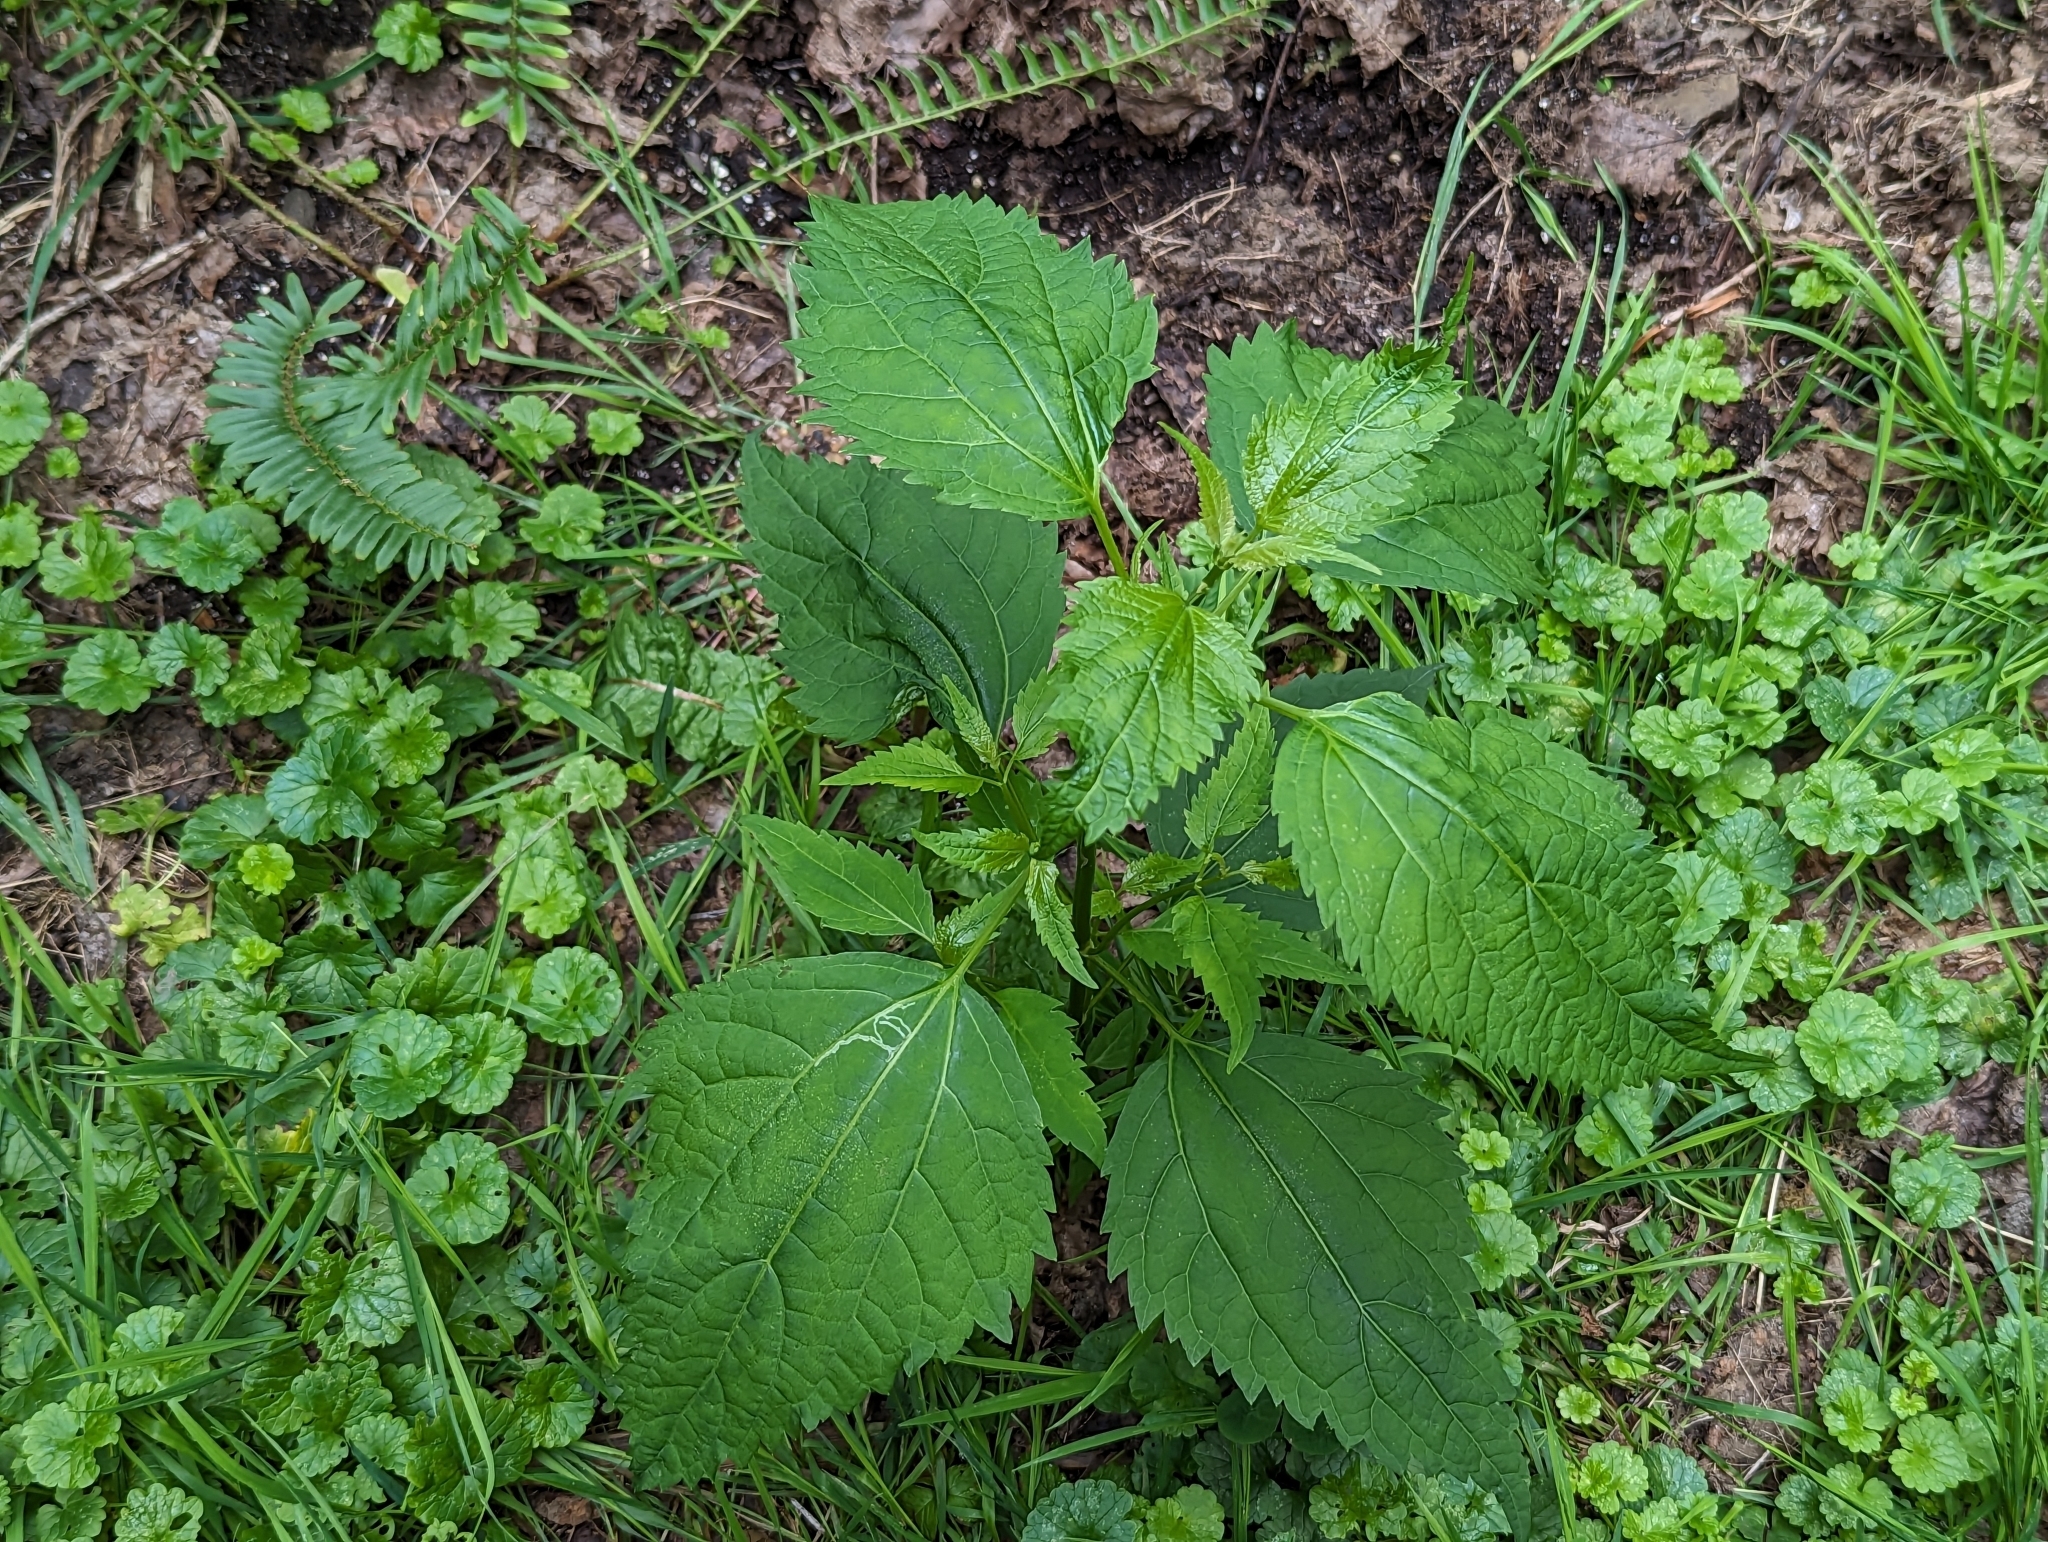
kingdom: Plantae
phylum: Tracheophyta
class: Magnoliopsida
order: Asterales
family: Asteraceae
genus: Ageratina
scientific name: Ageratina altissima
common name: White snakeroot
